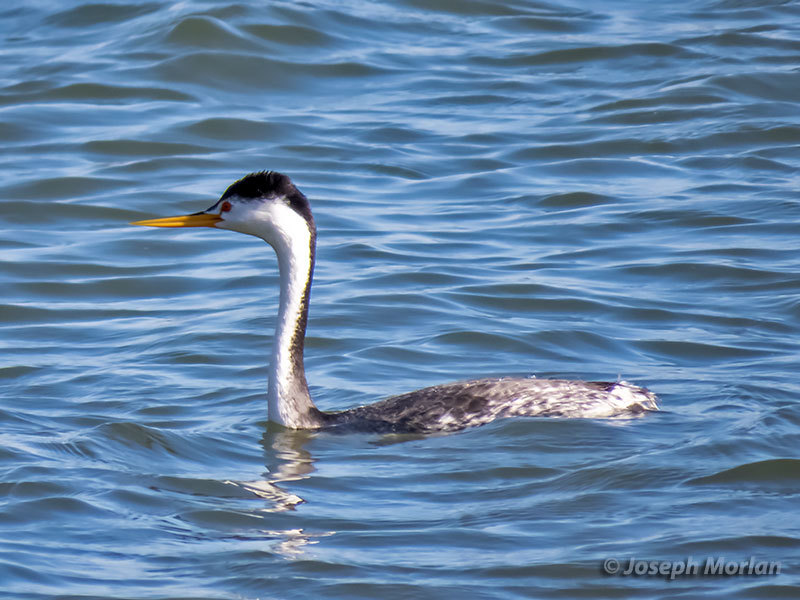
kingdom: Animalia
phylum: Chordata
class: Aves
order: Podicipediformes
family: Podicipedidae
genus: Aechmophorus
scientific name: Aechmophorus clarkii
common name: Clark's grebe
